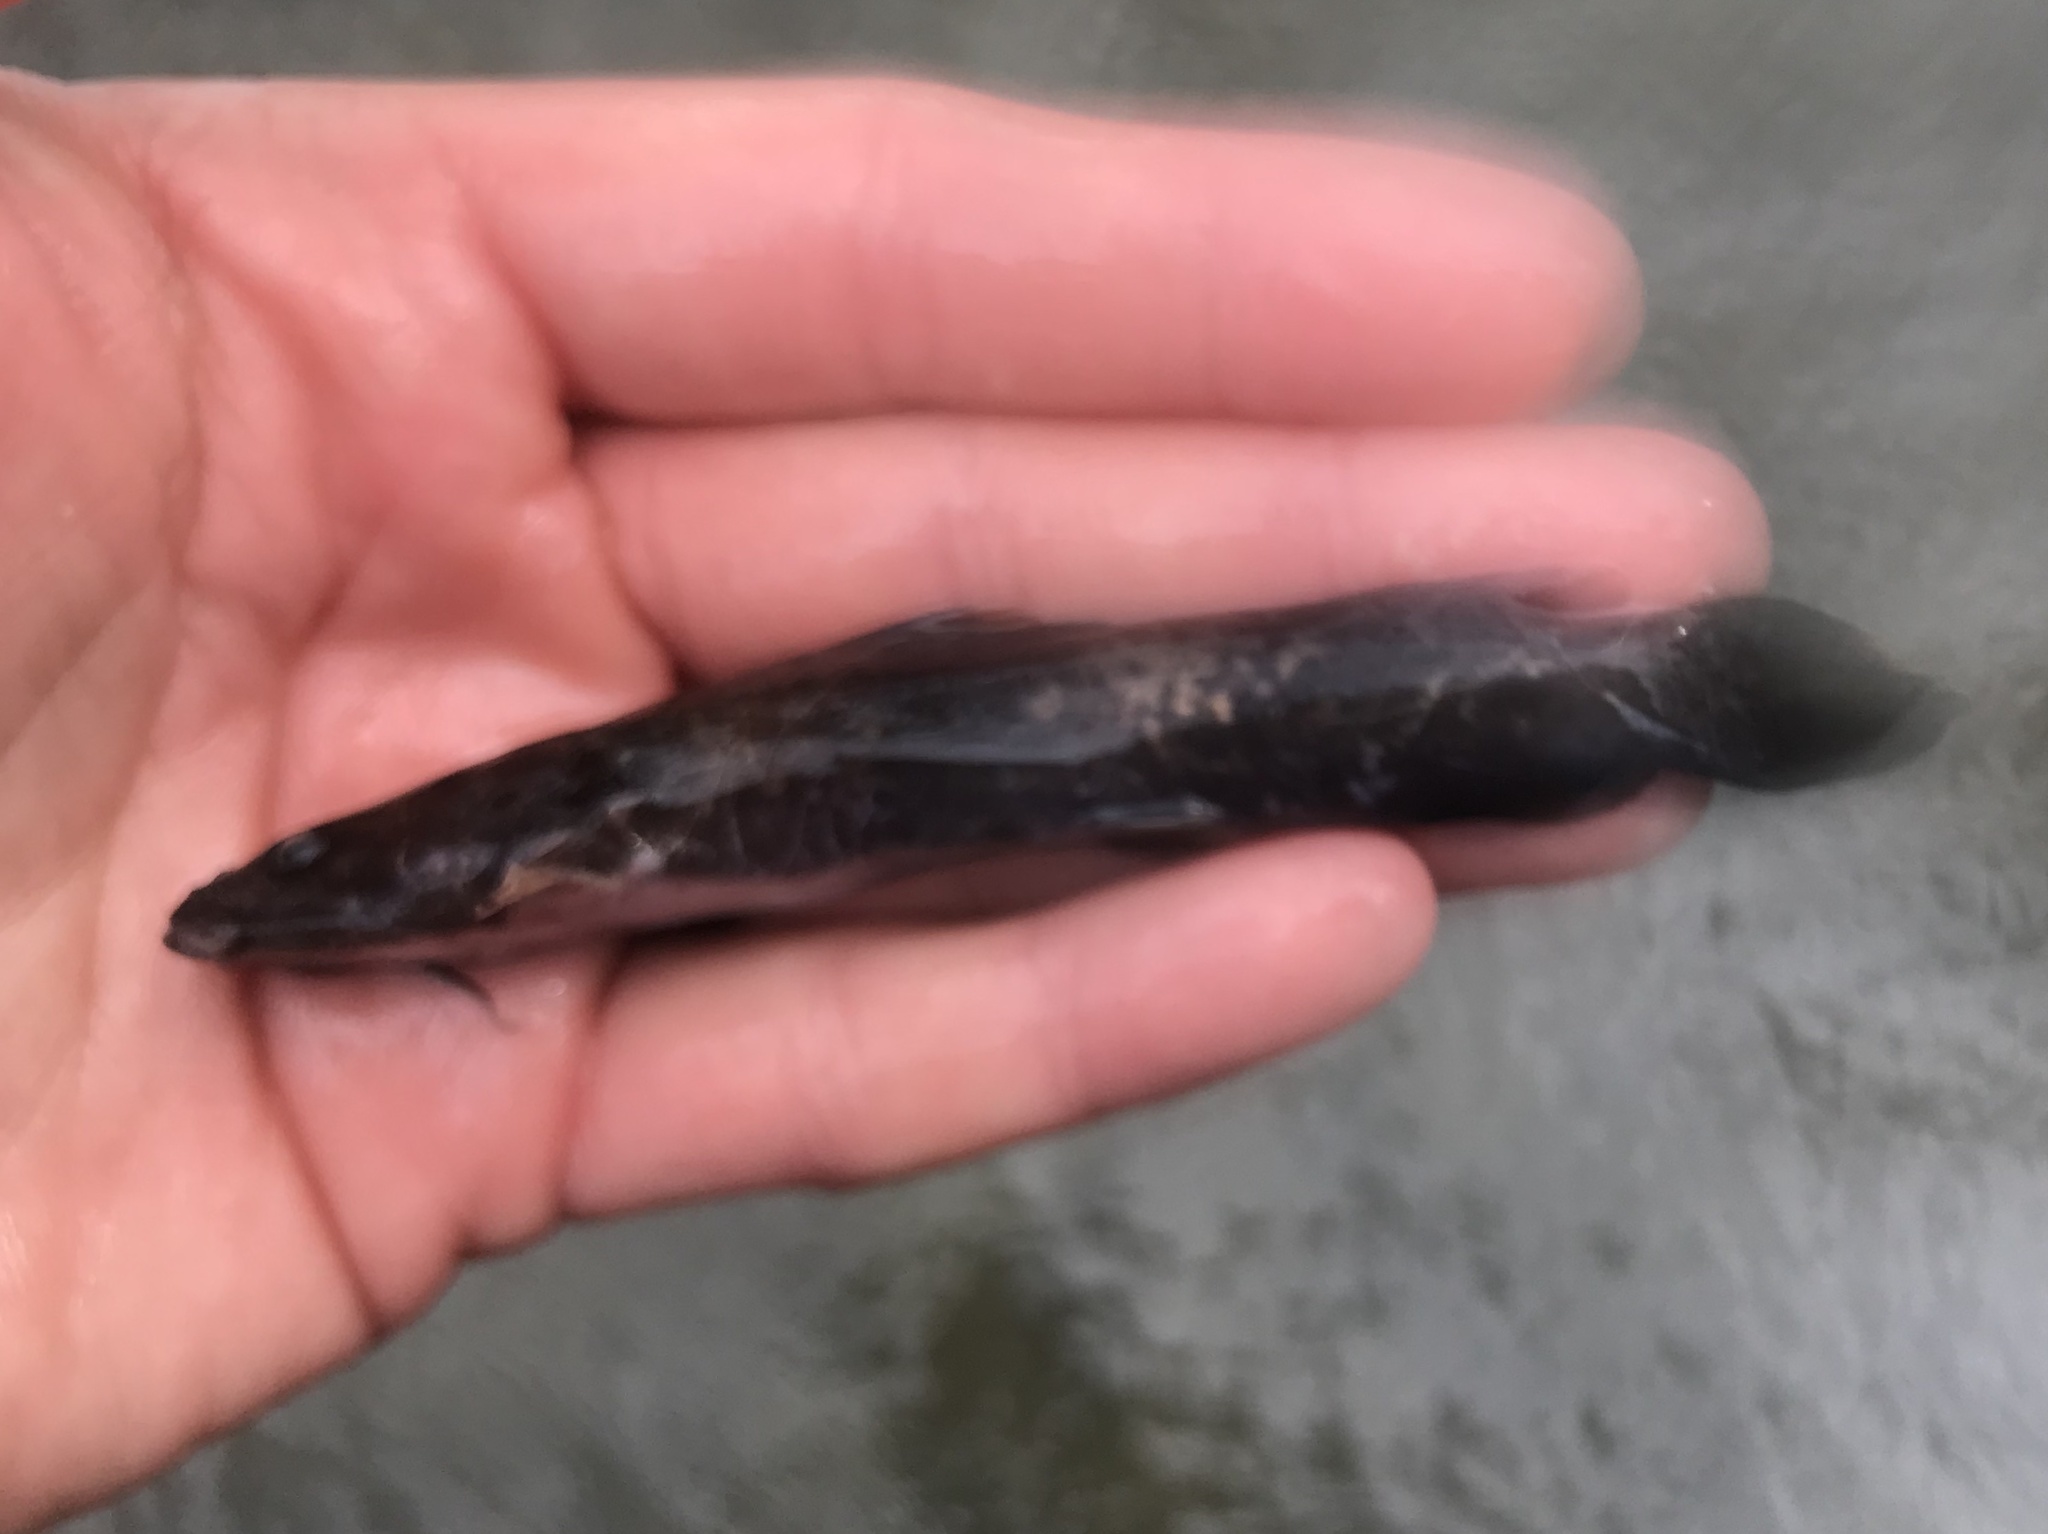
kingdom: Animalia
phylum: Chordata
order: Siluriformes
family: Ictaluridae
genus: Pylodictis
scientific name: Pylodictis olivaris
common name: Flathead catfish
